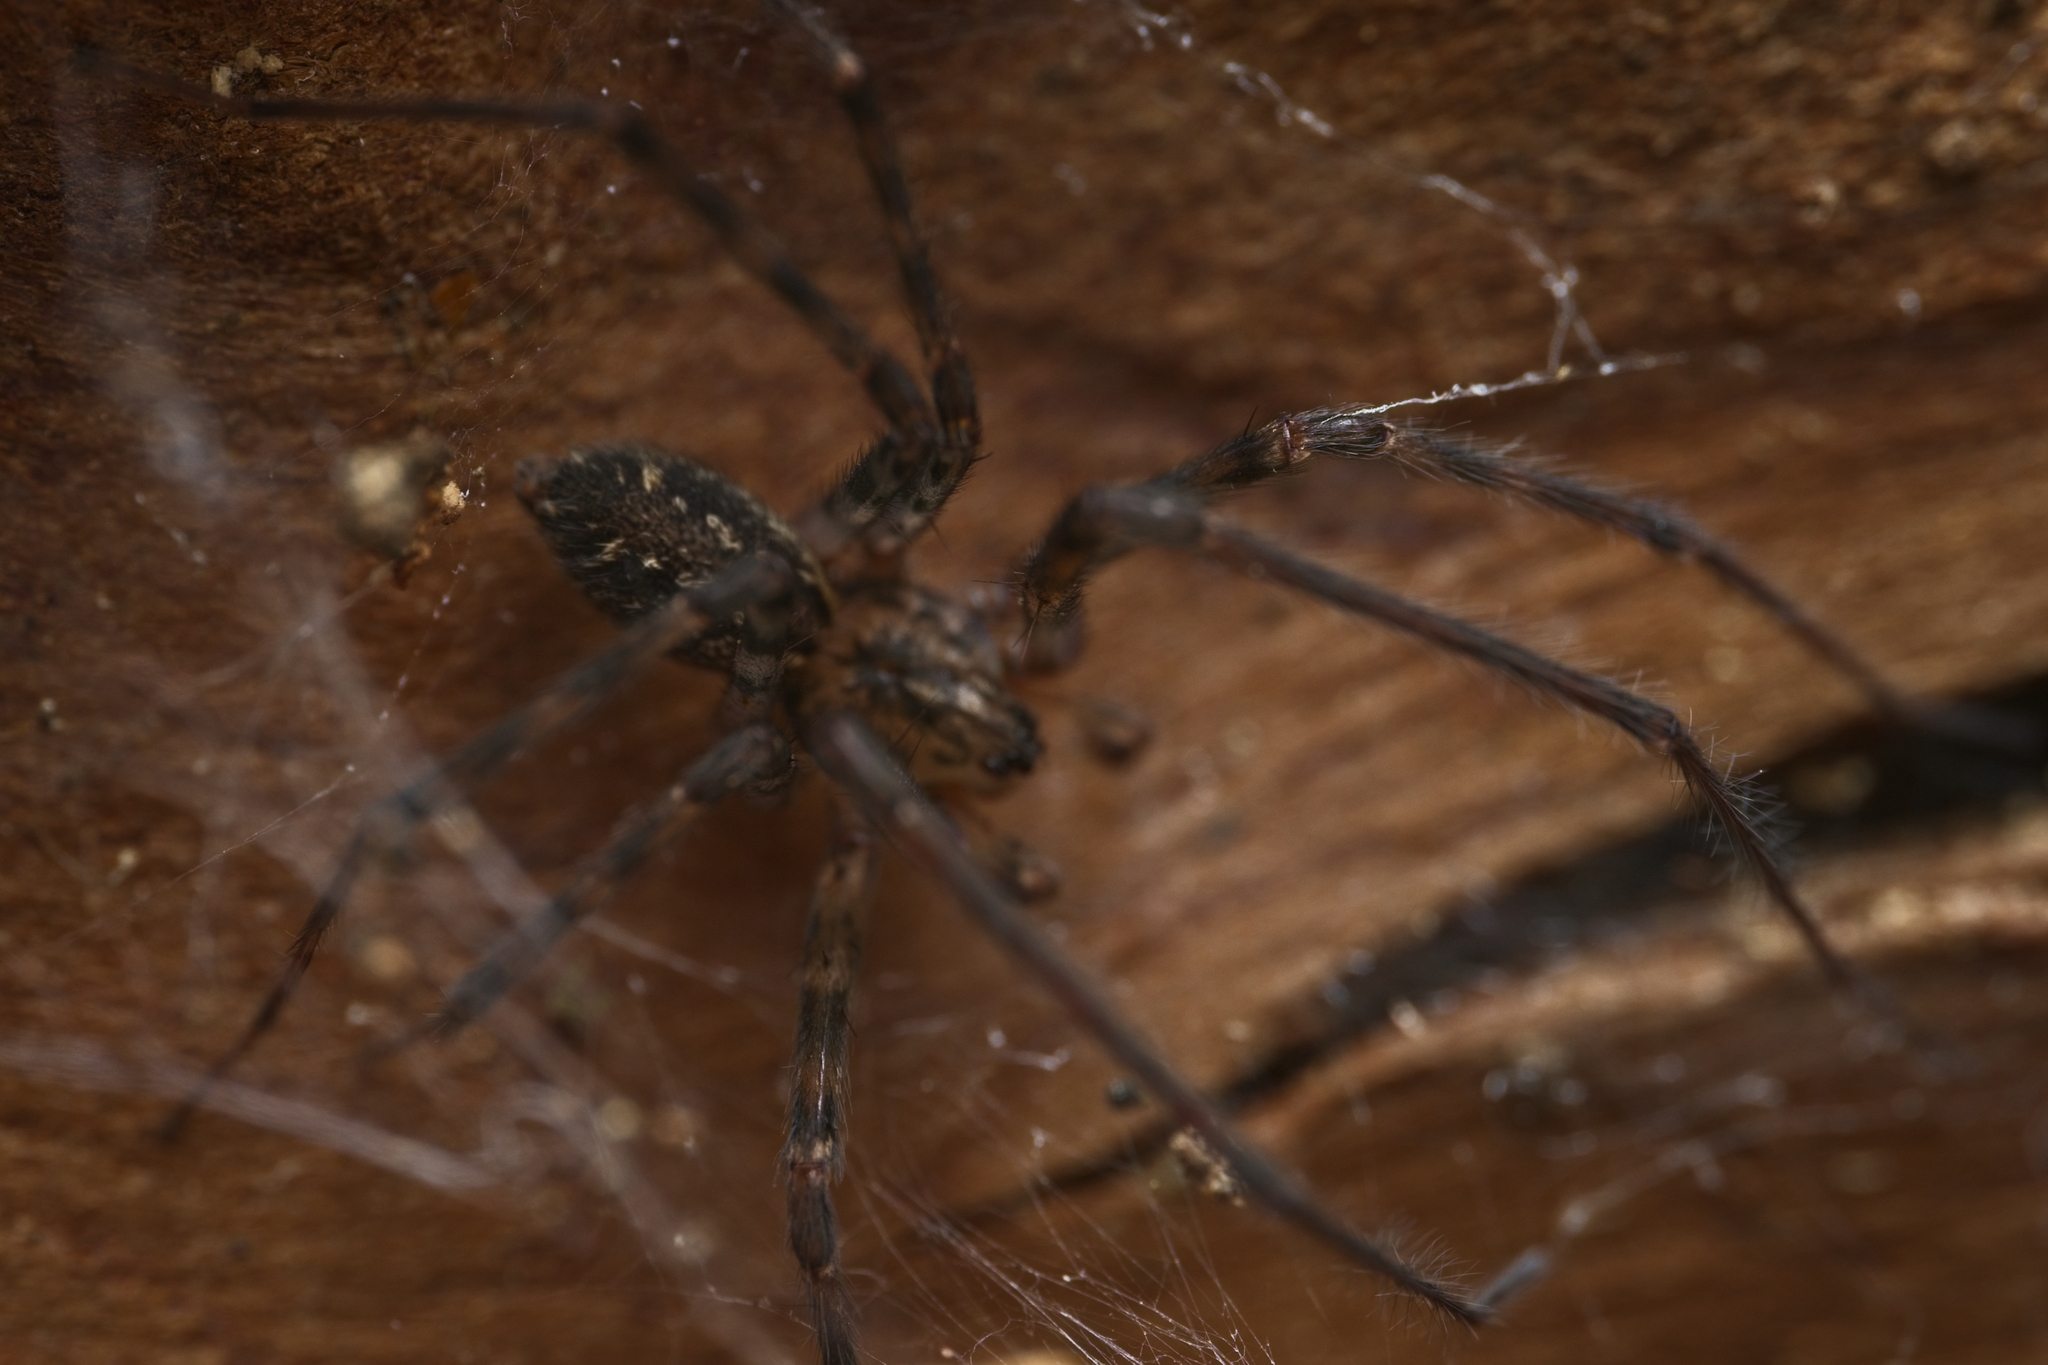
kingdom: Animalia
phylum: Arthropoda
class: Arachnida
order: Araneae
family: Stiphidiidae
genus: Stiphidion
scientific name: Stiphidion facetum
